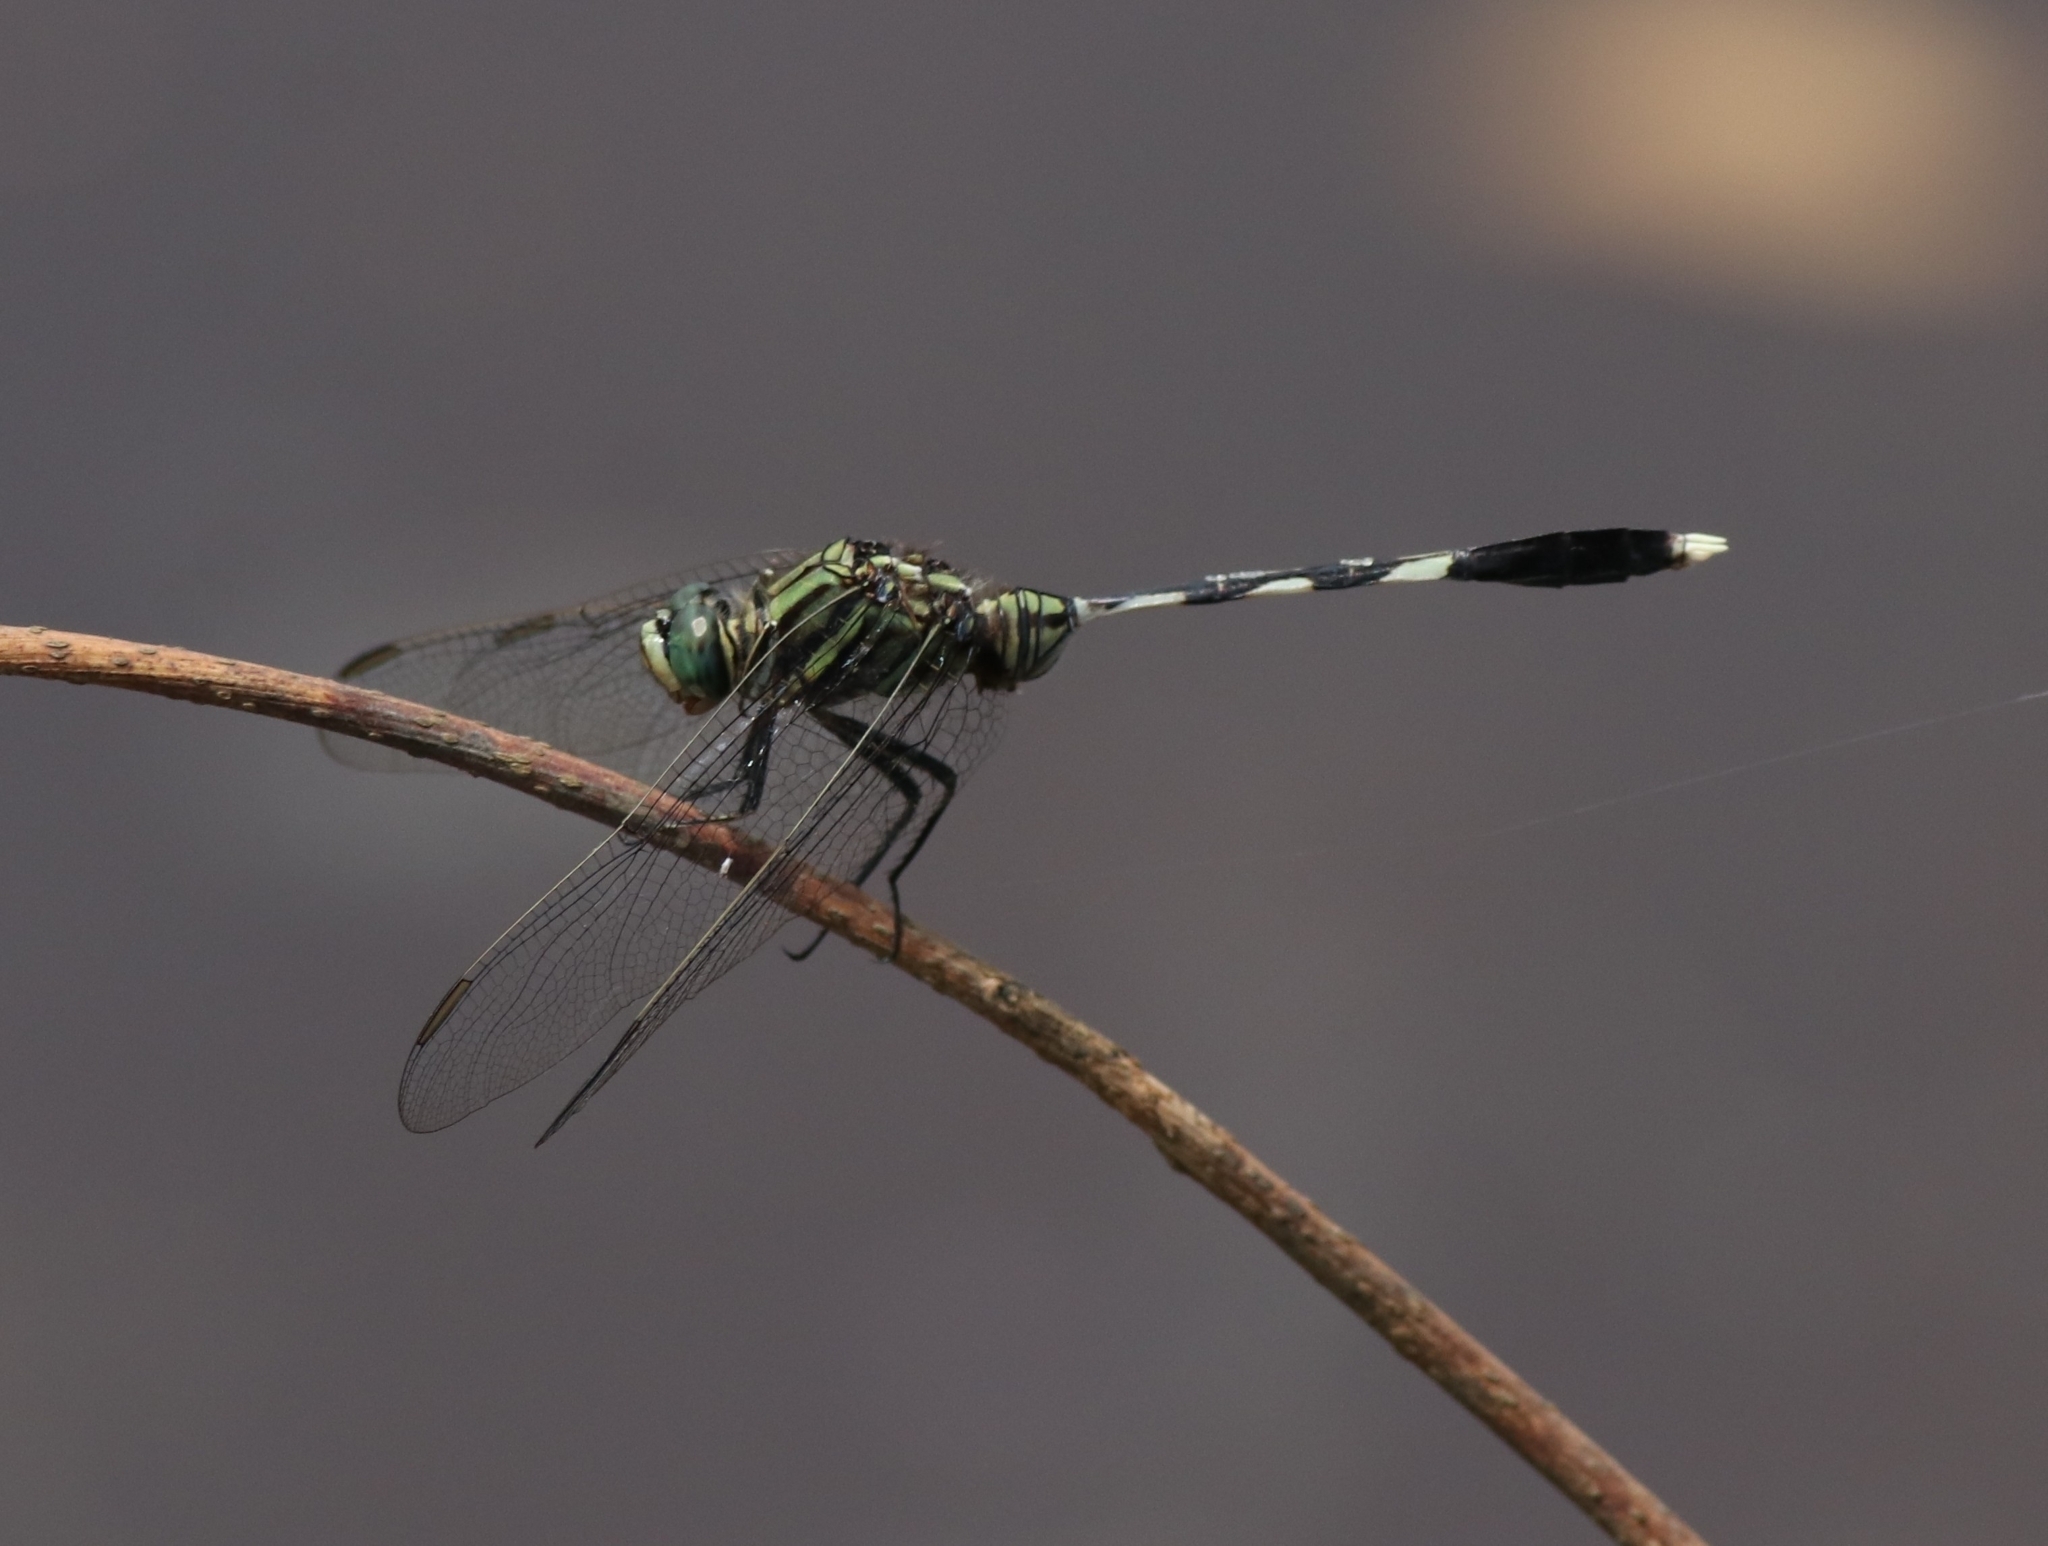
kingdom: Animalia
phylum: Arthropoda
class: Insecta
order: Odonata
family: Libellulidae
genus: Orthetrum
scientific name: Orthetrum sabina
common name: Slender skimmer
